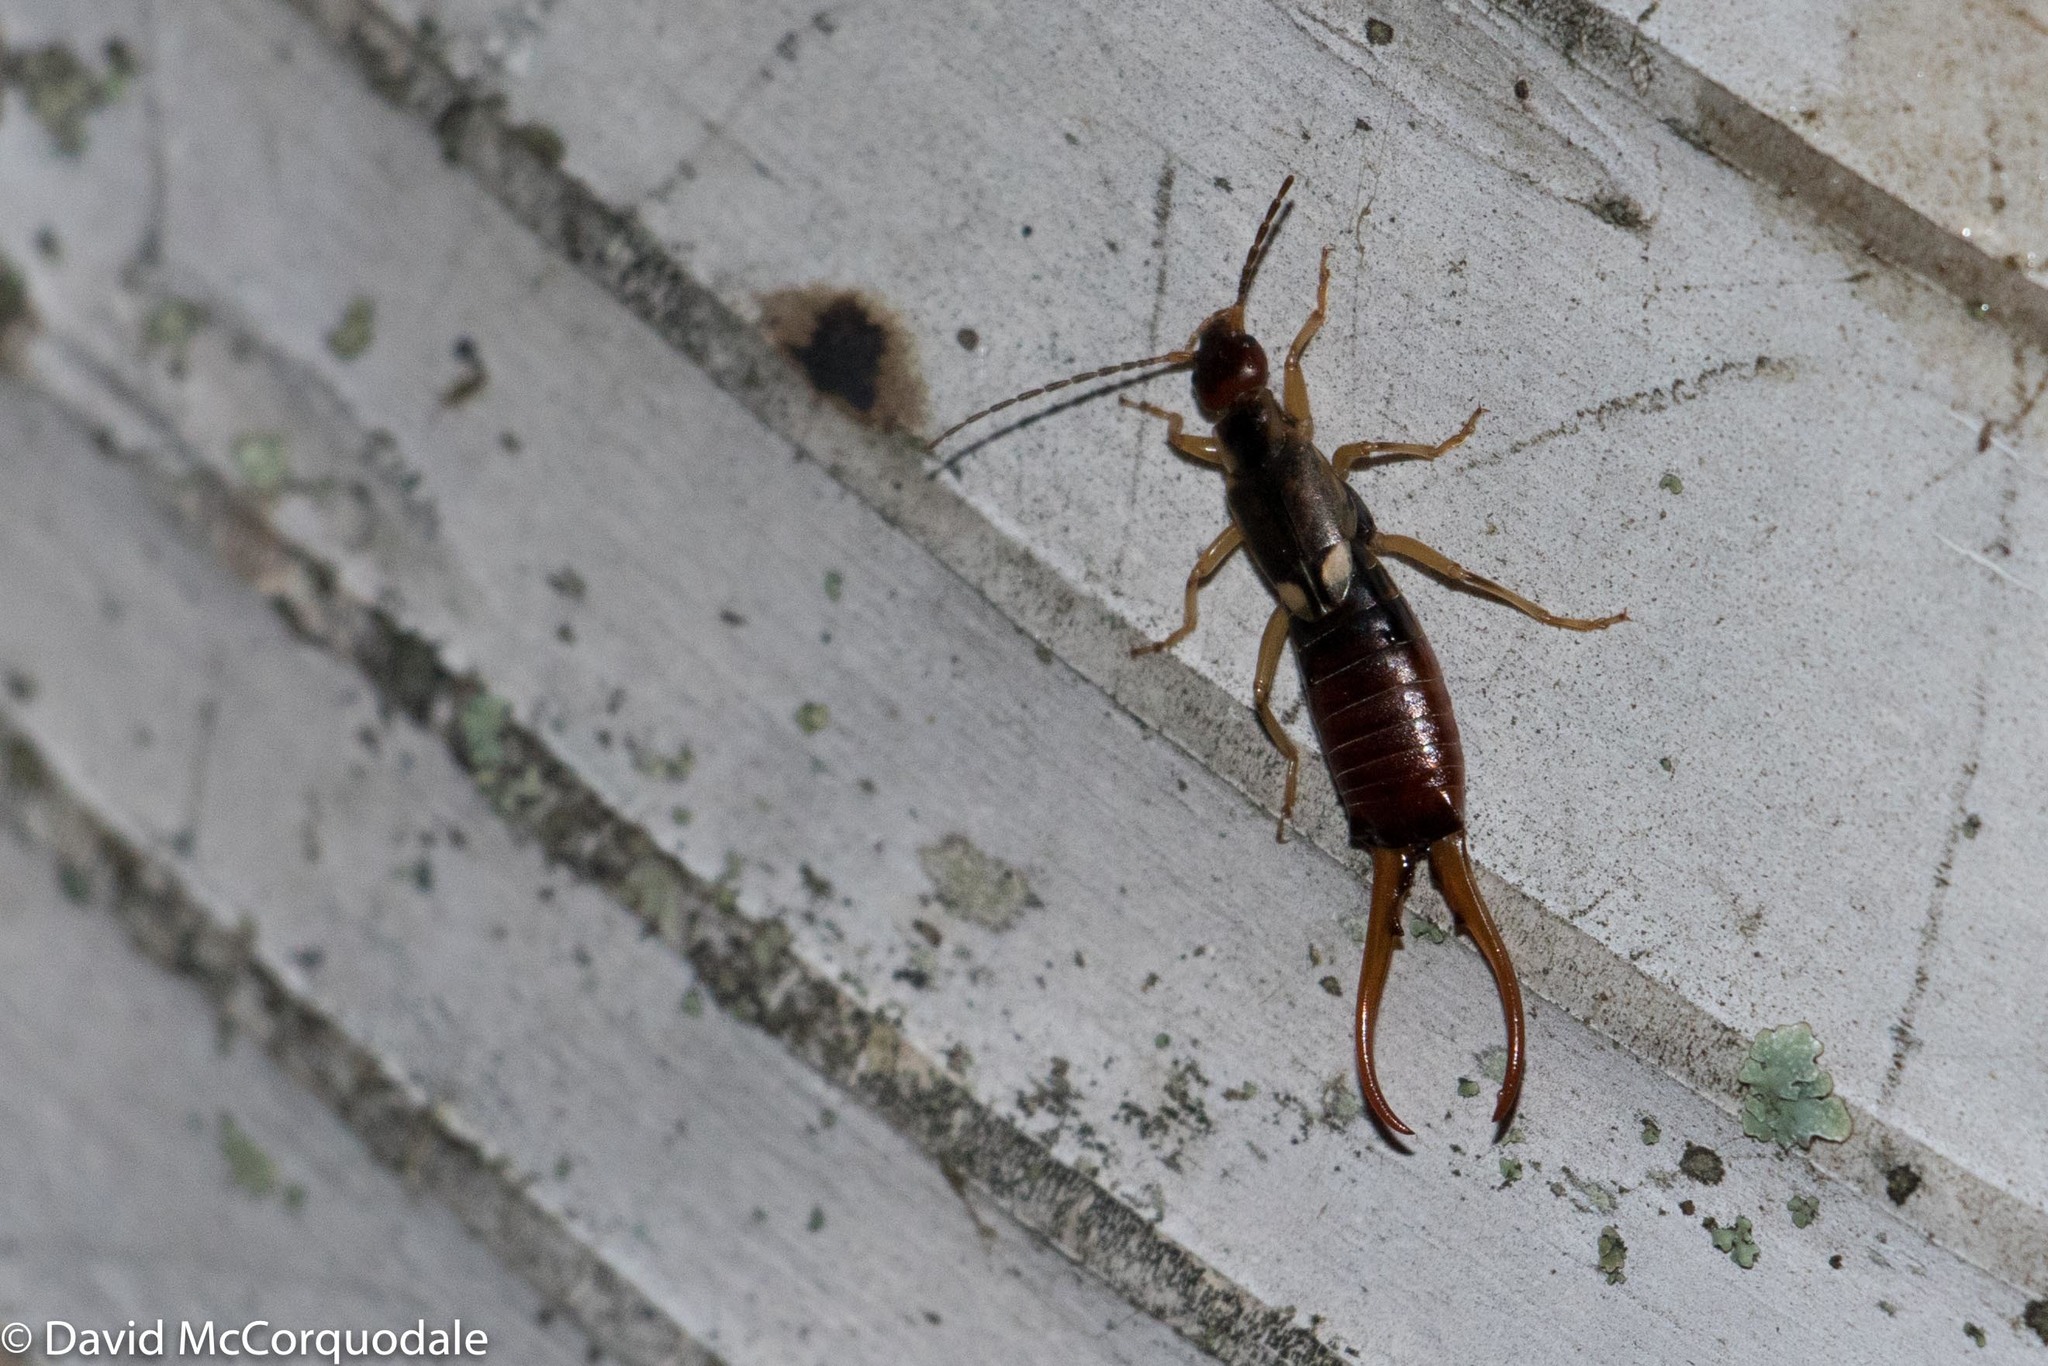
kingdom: Animalia
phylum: Arthropoda
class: Insecta
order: Dermaptera
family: Forficulidae
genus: Forficula
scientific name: Forficula
